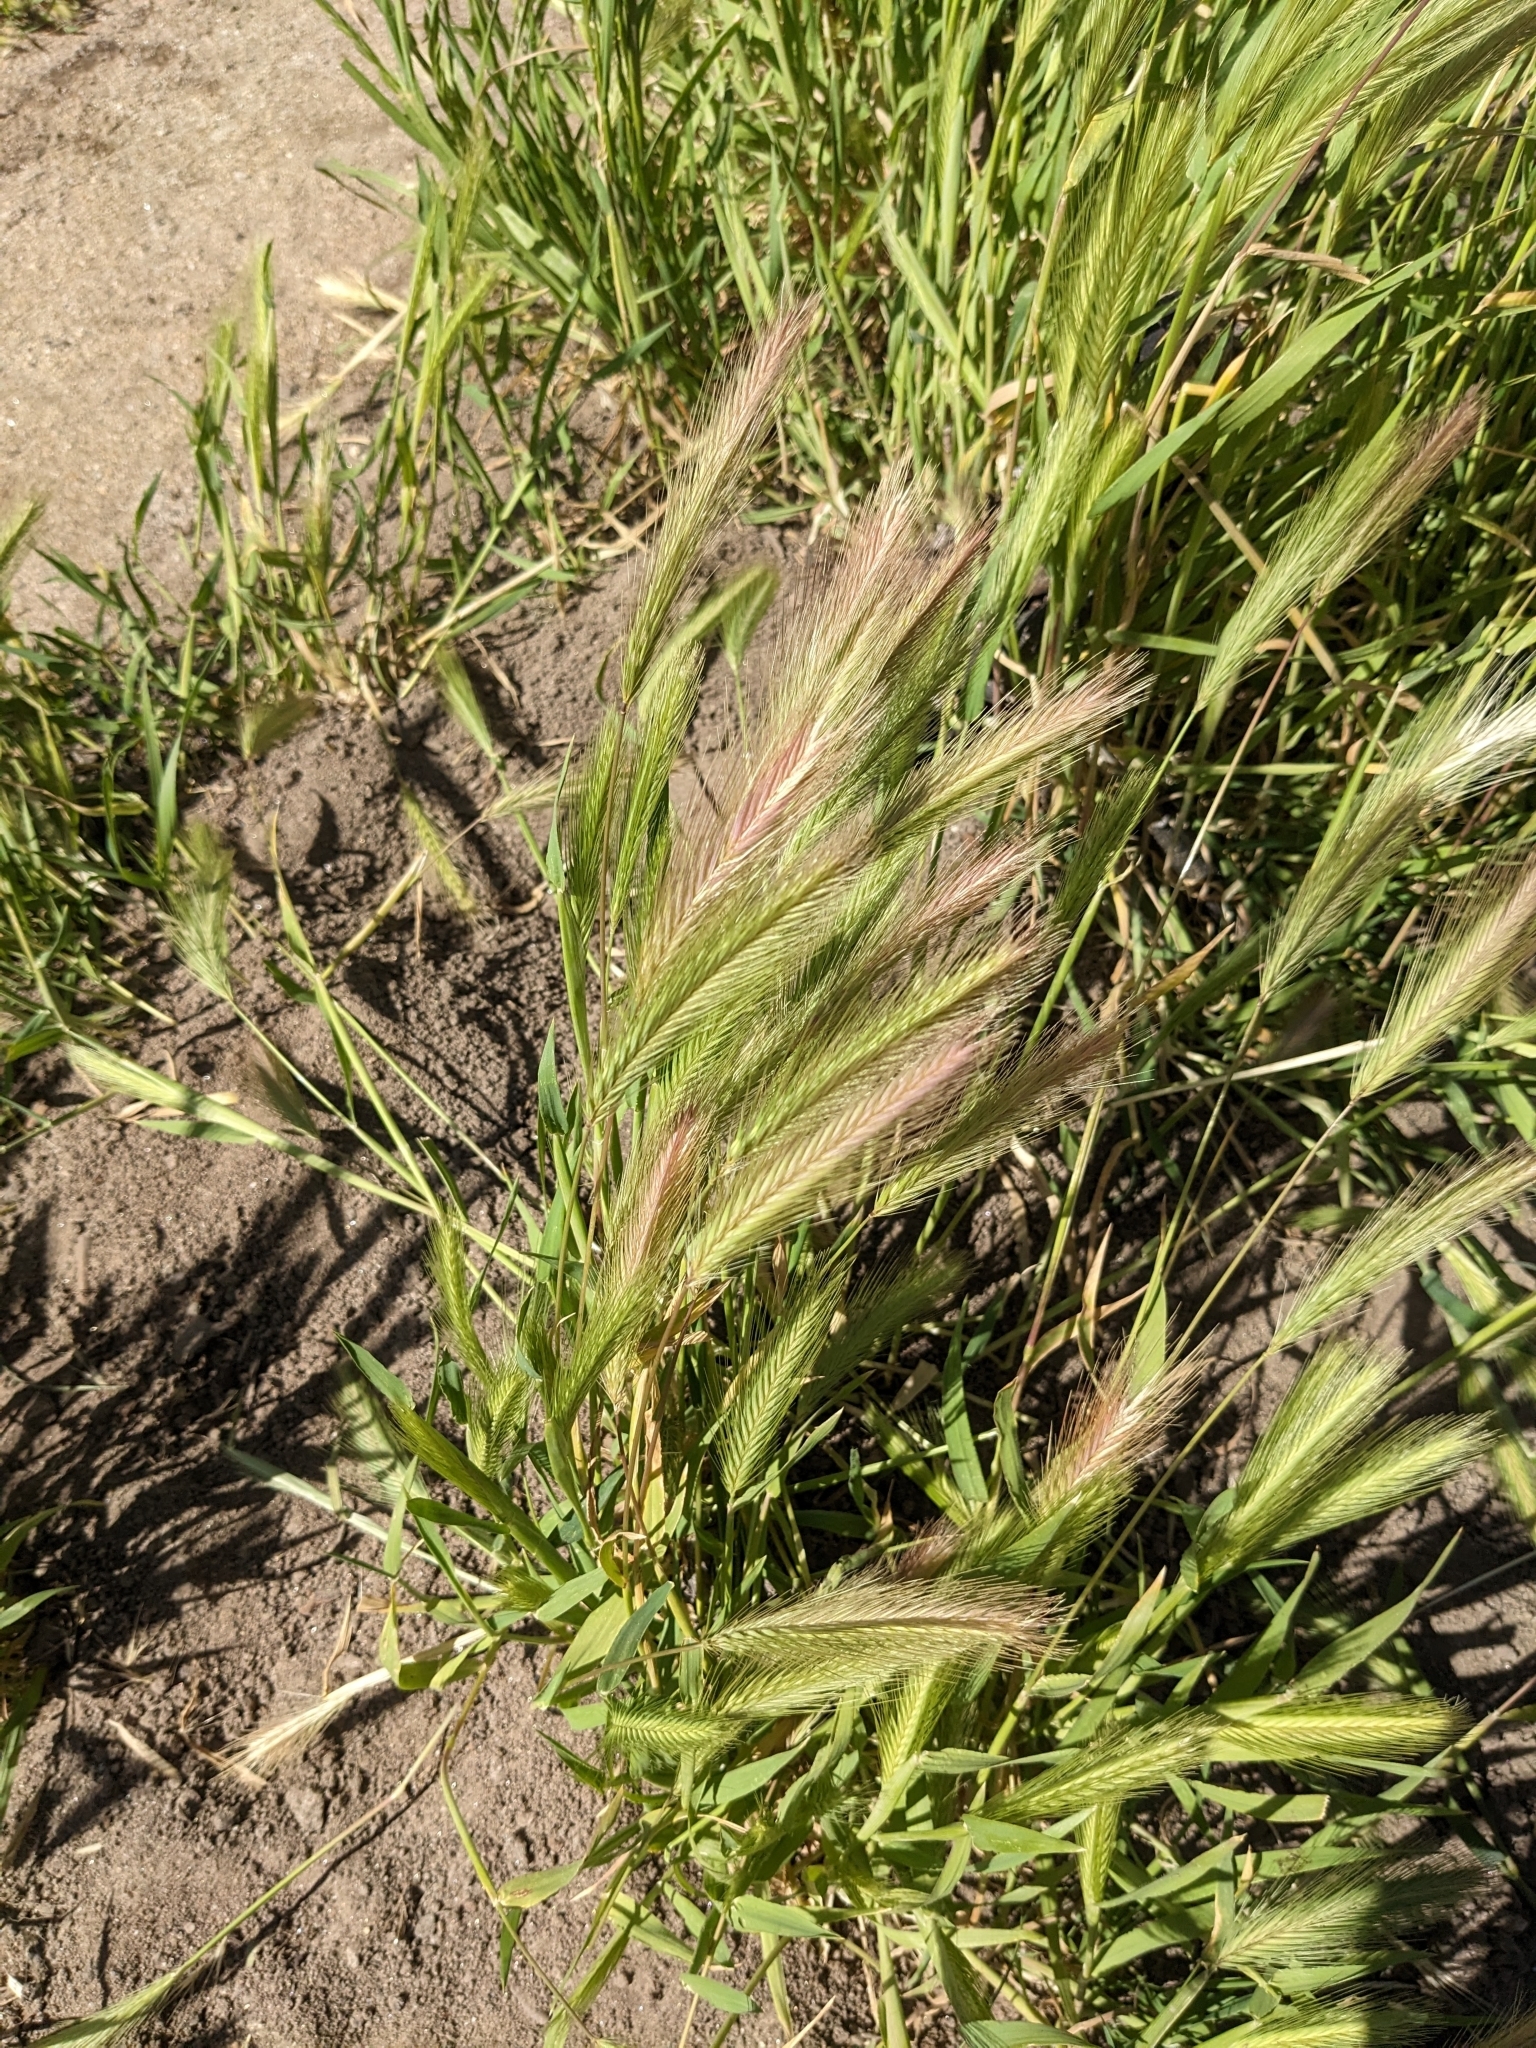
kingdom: Plantae
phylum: Tracheophyta
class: Liliopsida
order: Poales
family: Poaceae
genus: Hordeum
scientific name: Hordeum murinum
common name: Wall barley
